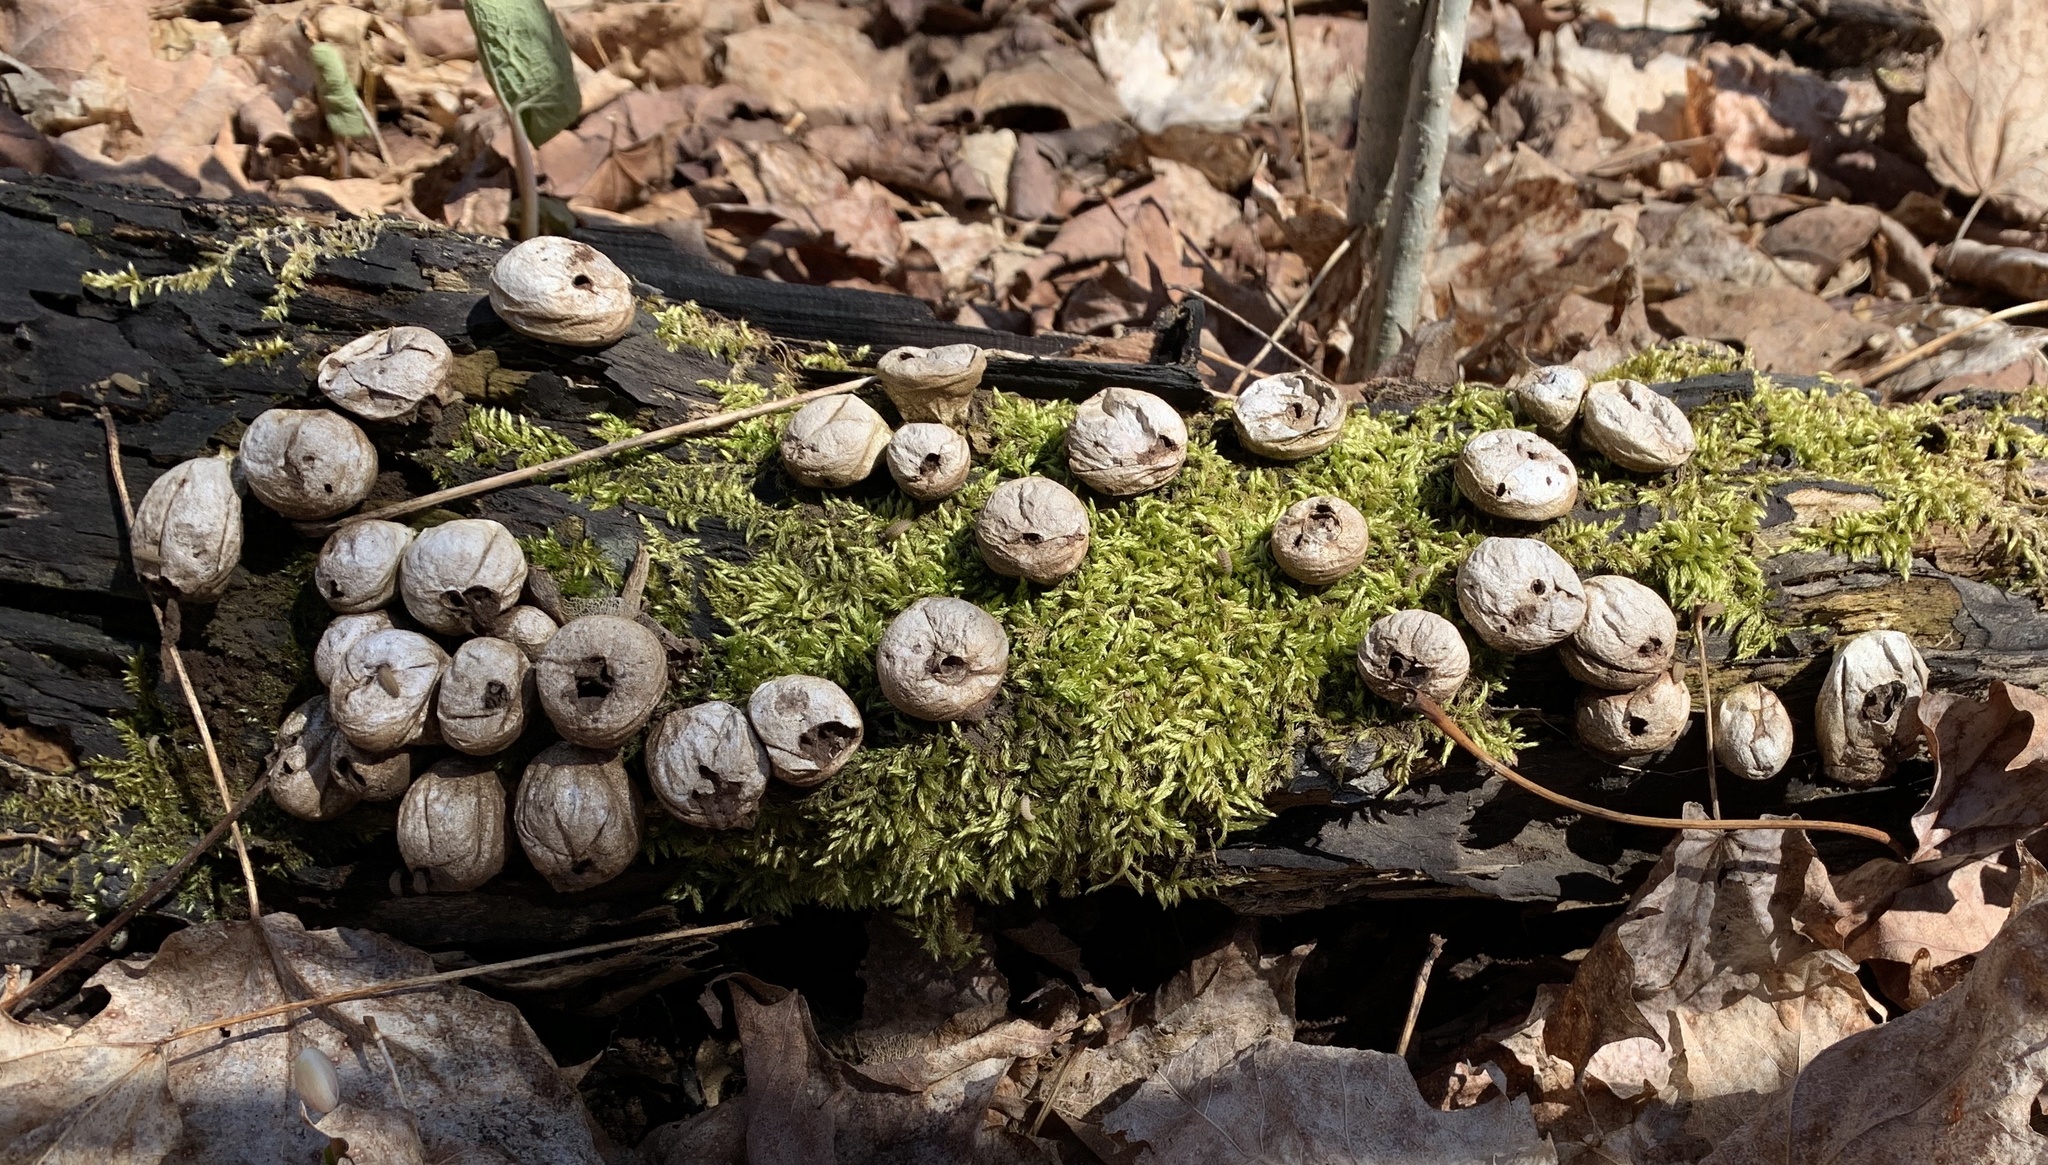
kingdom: Fungi
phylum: Basidiomycota
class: Agaricomycetes
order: Agaricales
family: Lycoperdaceae
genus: Apioperdon
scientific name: Apioperdon pyriforme
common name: Pear-shaped puffball
